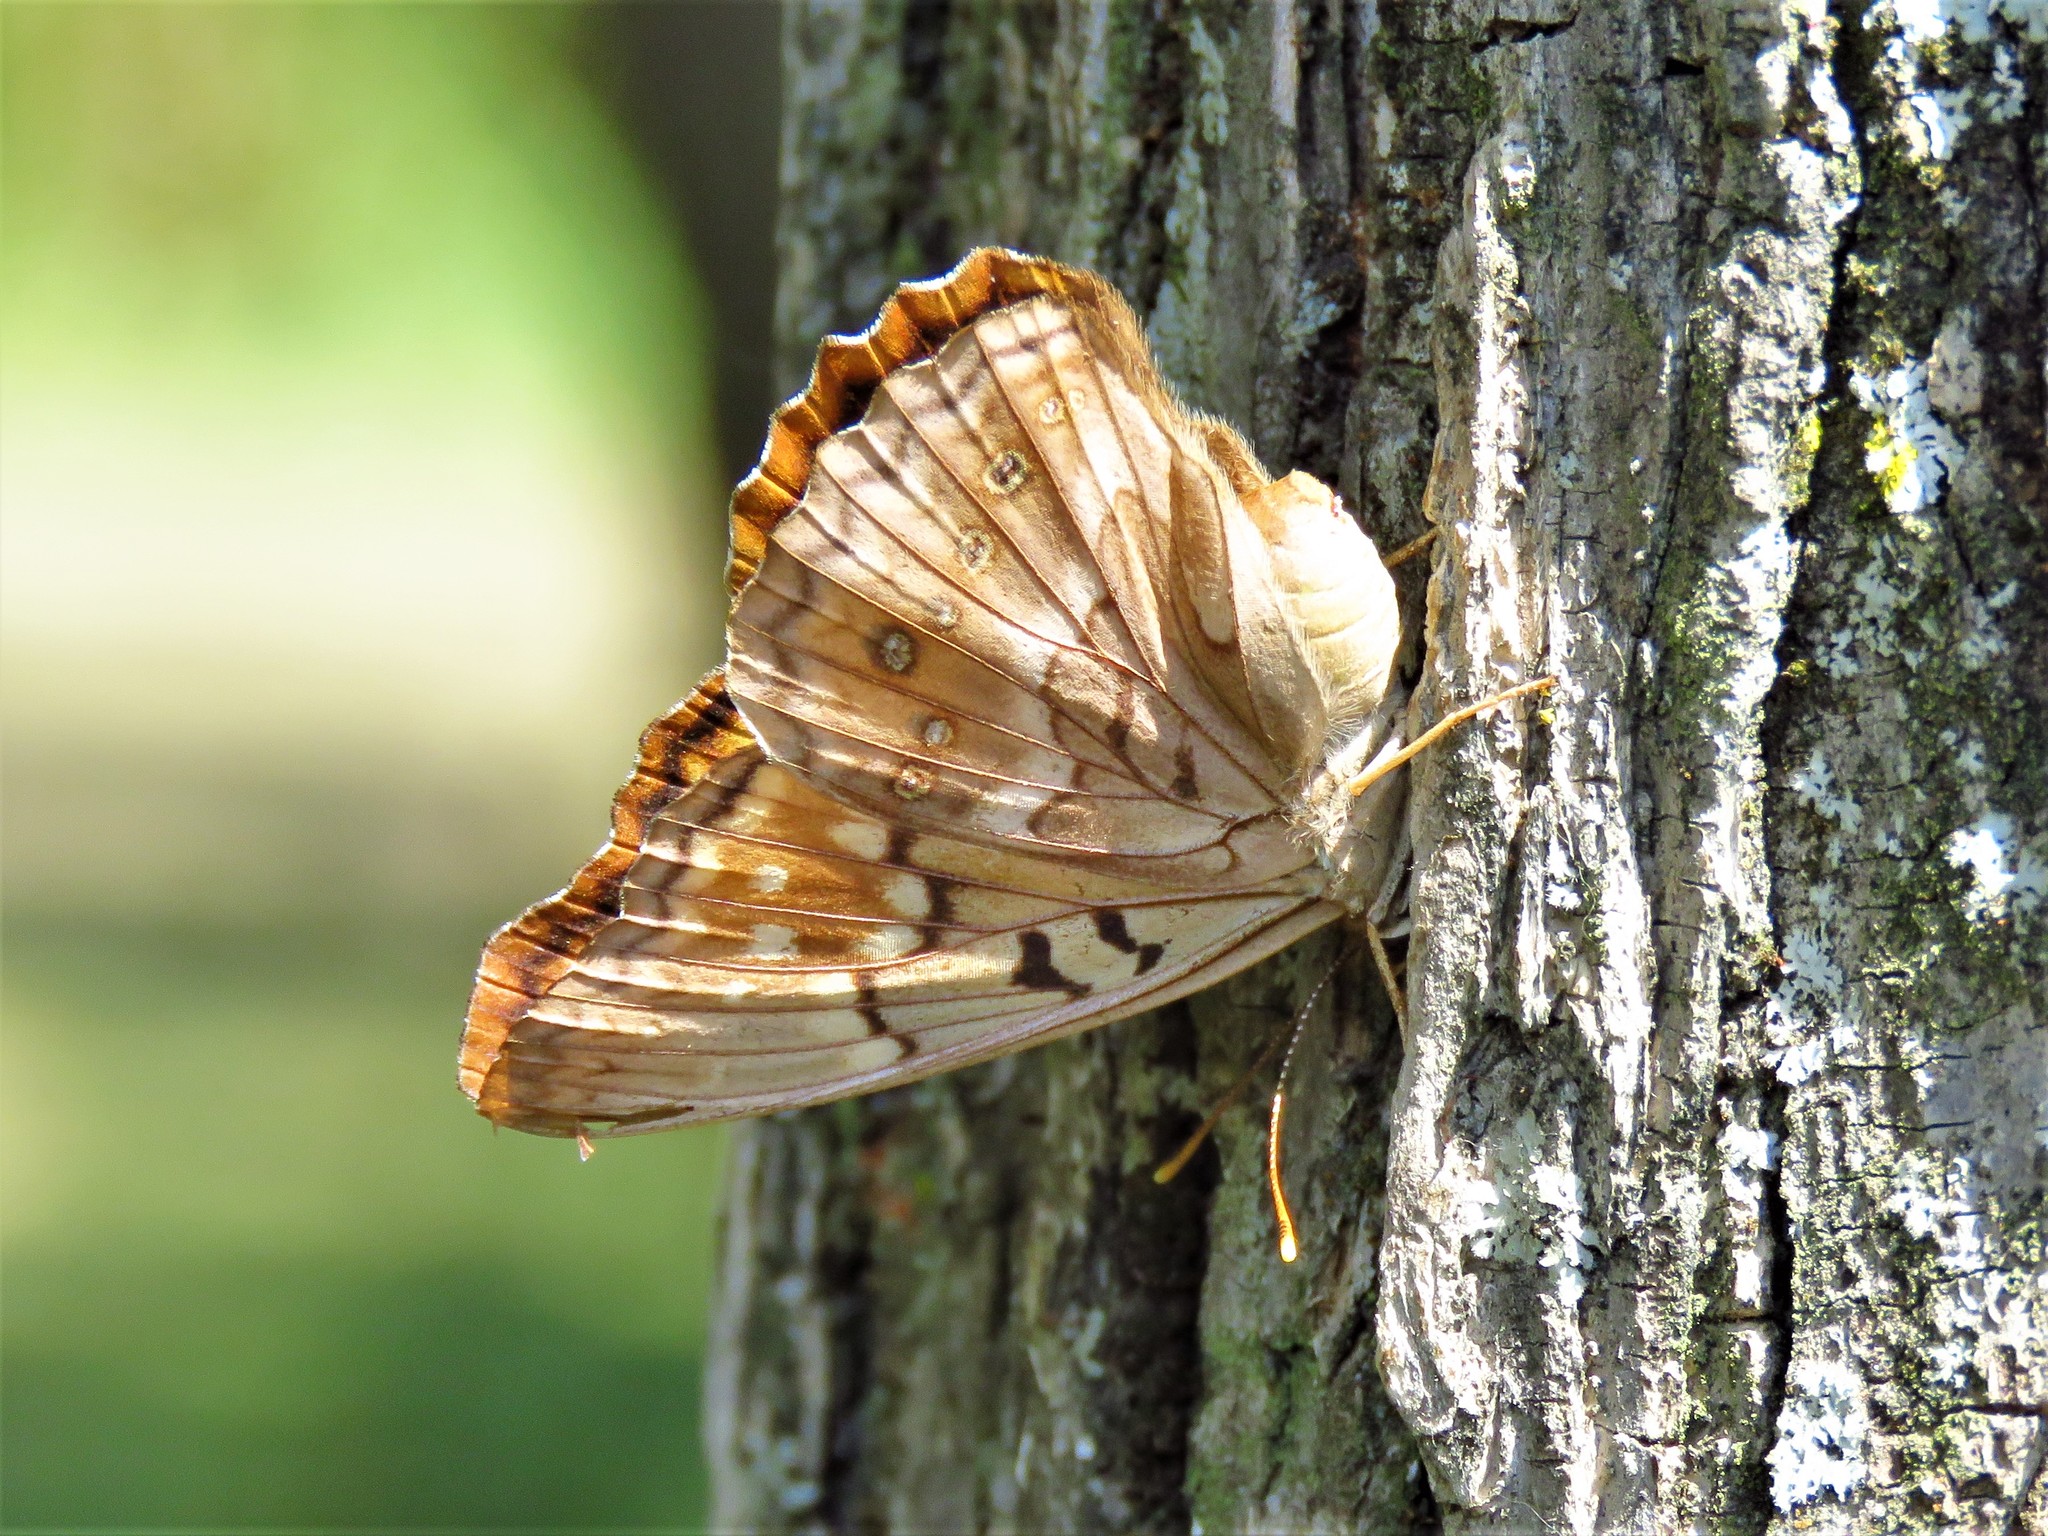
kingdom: Animalia
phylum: Arthropoda
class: Insecta
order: Lepidoptera
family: Nymphalidae
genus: Asterocampa
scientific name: Asterocampa clyton
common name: Tawny emperor
